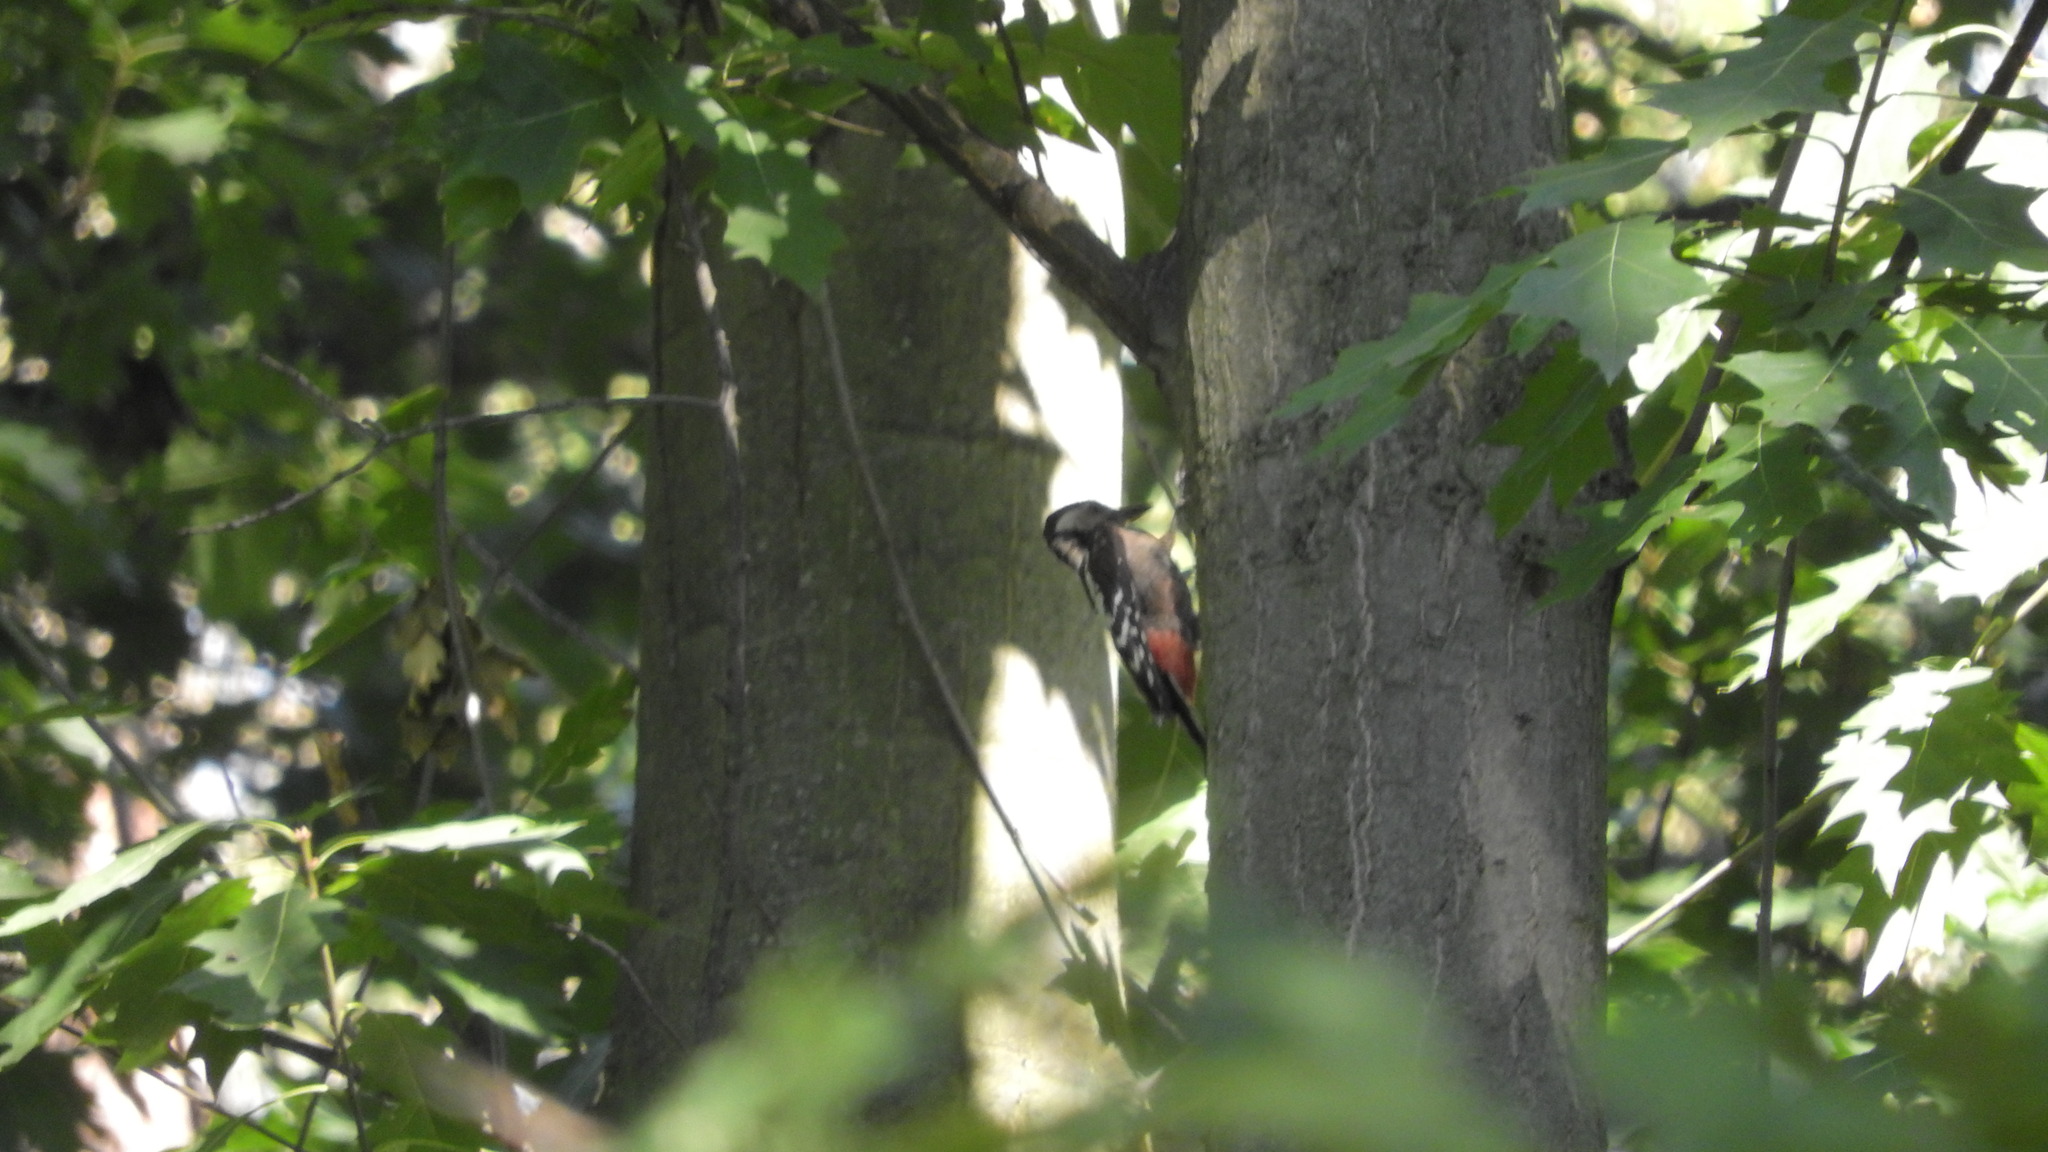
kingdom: Animalia
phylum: Chordata
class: Aves
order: Piciformes
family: Picidae
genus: Dendrocopos
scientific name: Dendrocopos major
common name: Great spotted woodpecker
